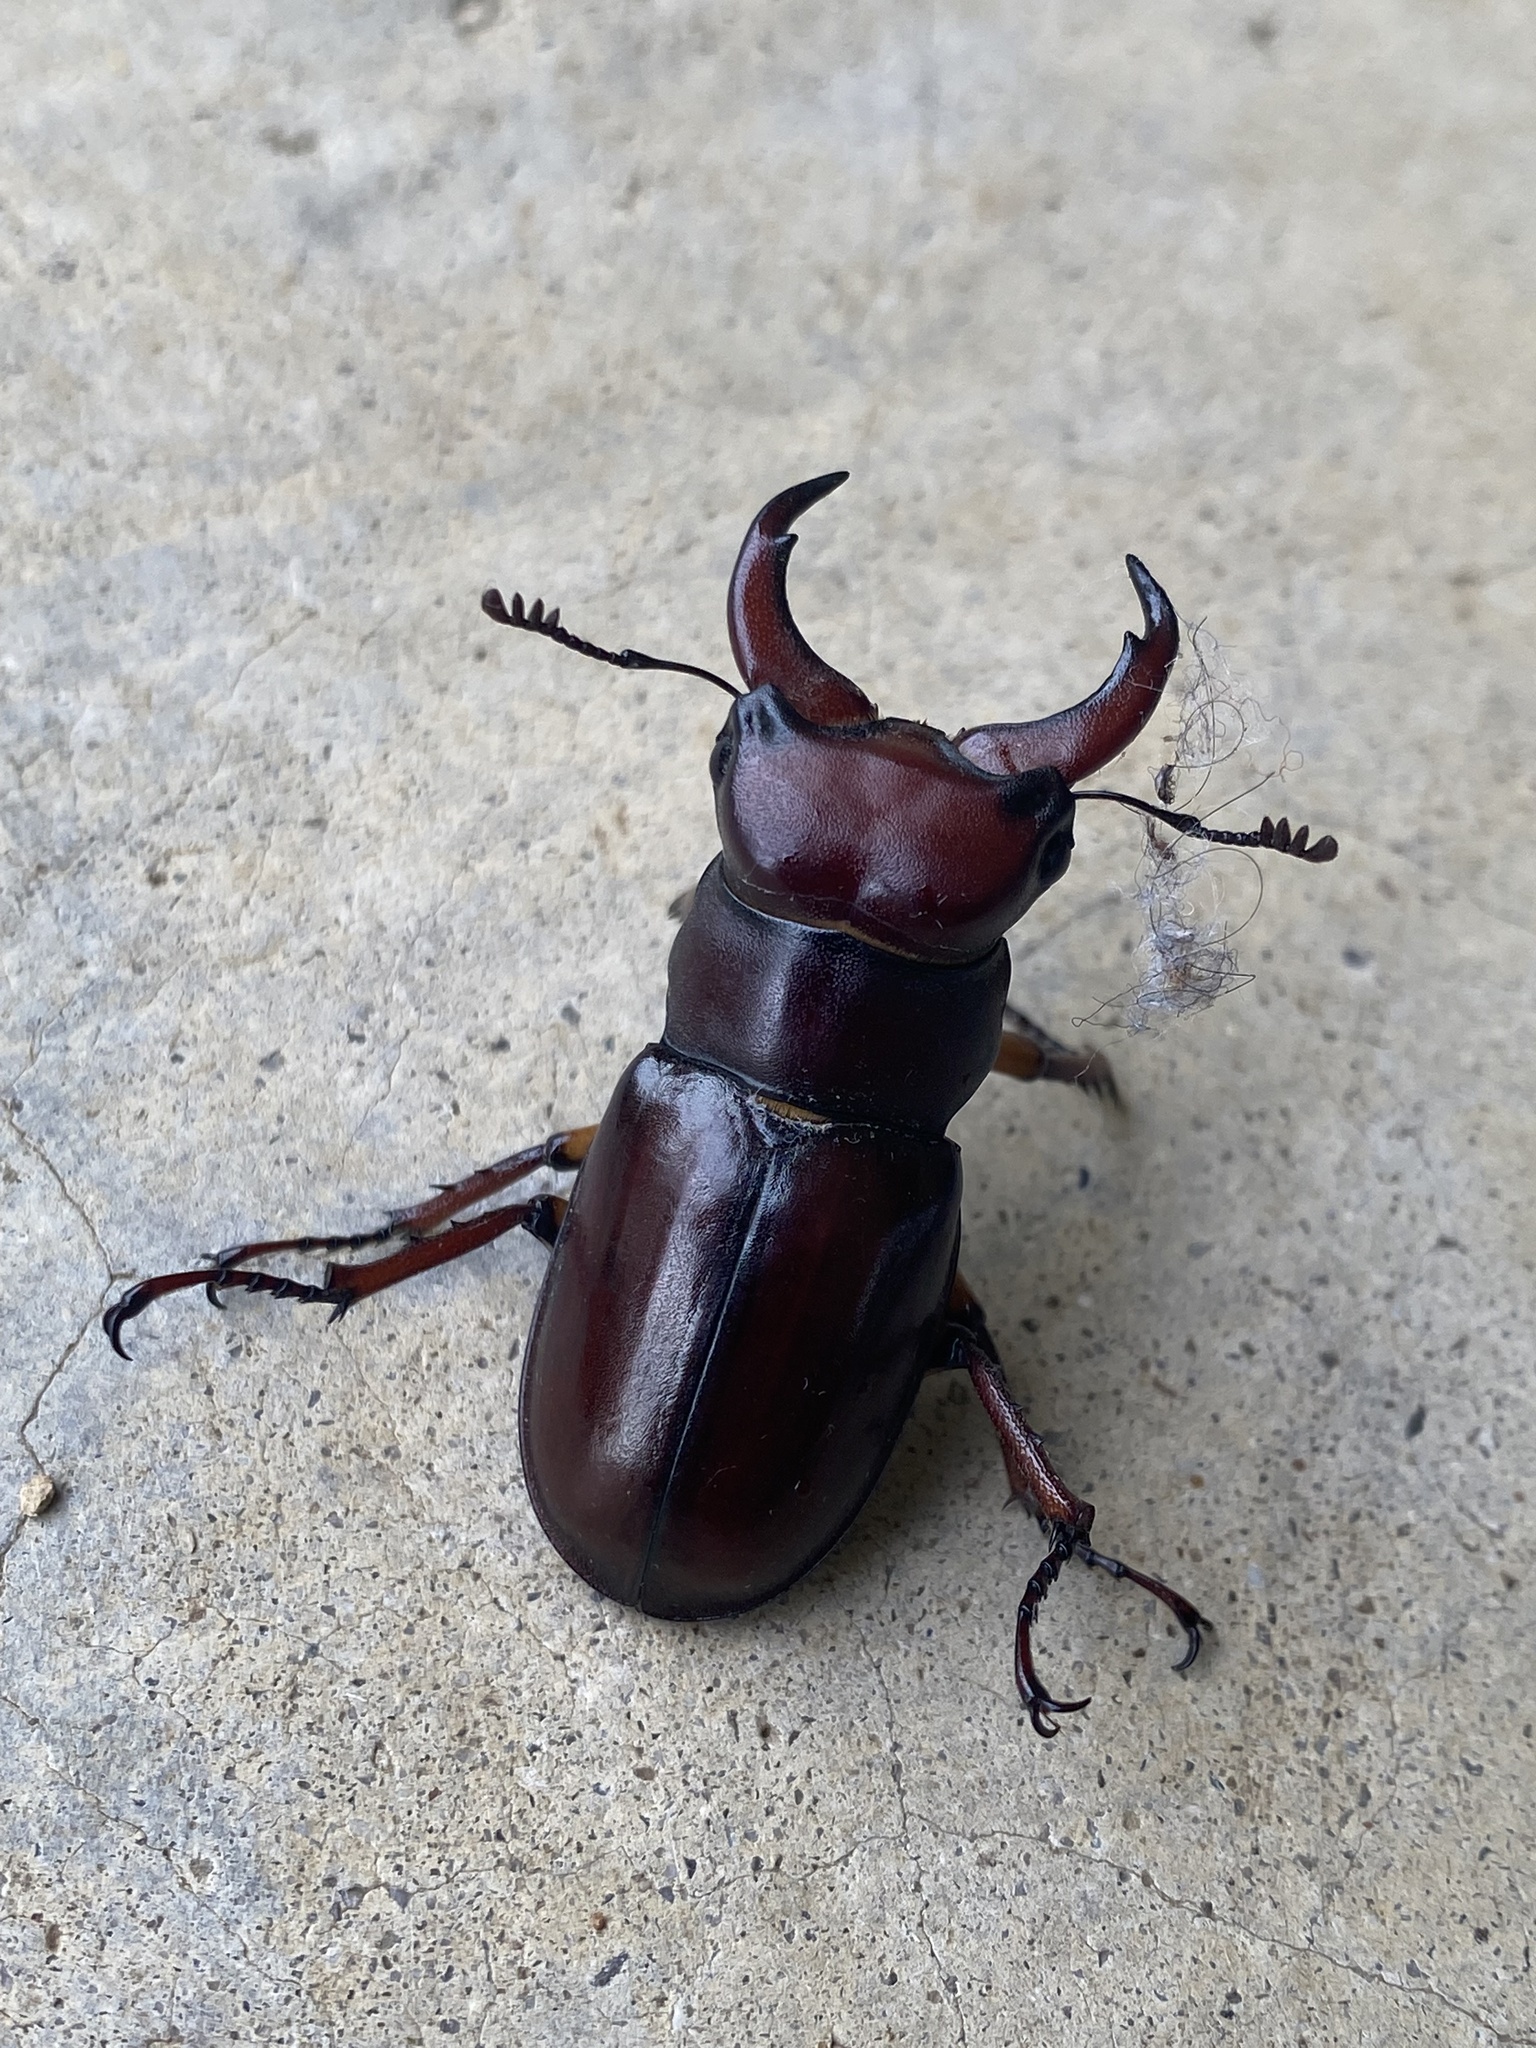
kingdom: Animalia
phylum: Arthropoda
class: Insecta
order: Coleoptera
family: Lucanidae
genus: Lucanus
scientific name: Lucanus capreolus
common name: Stag beetle
